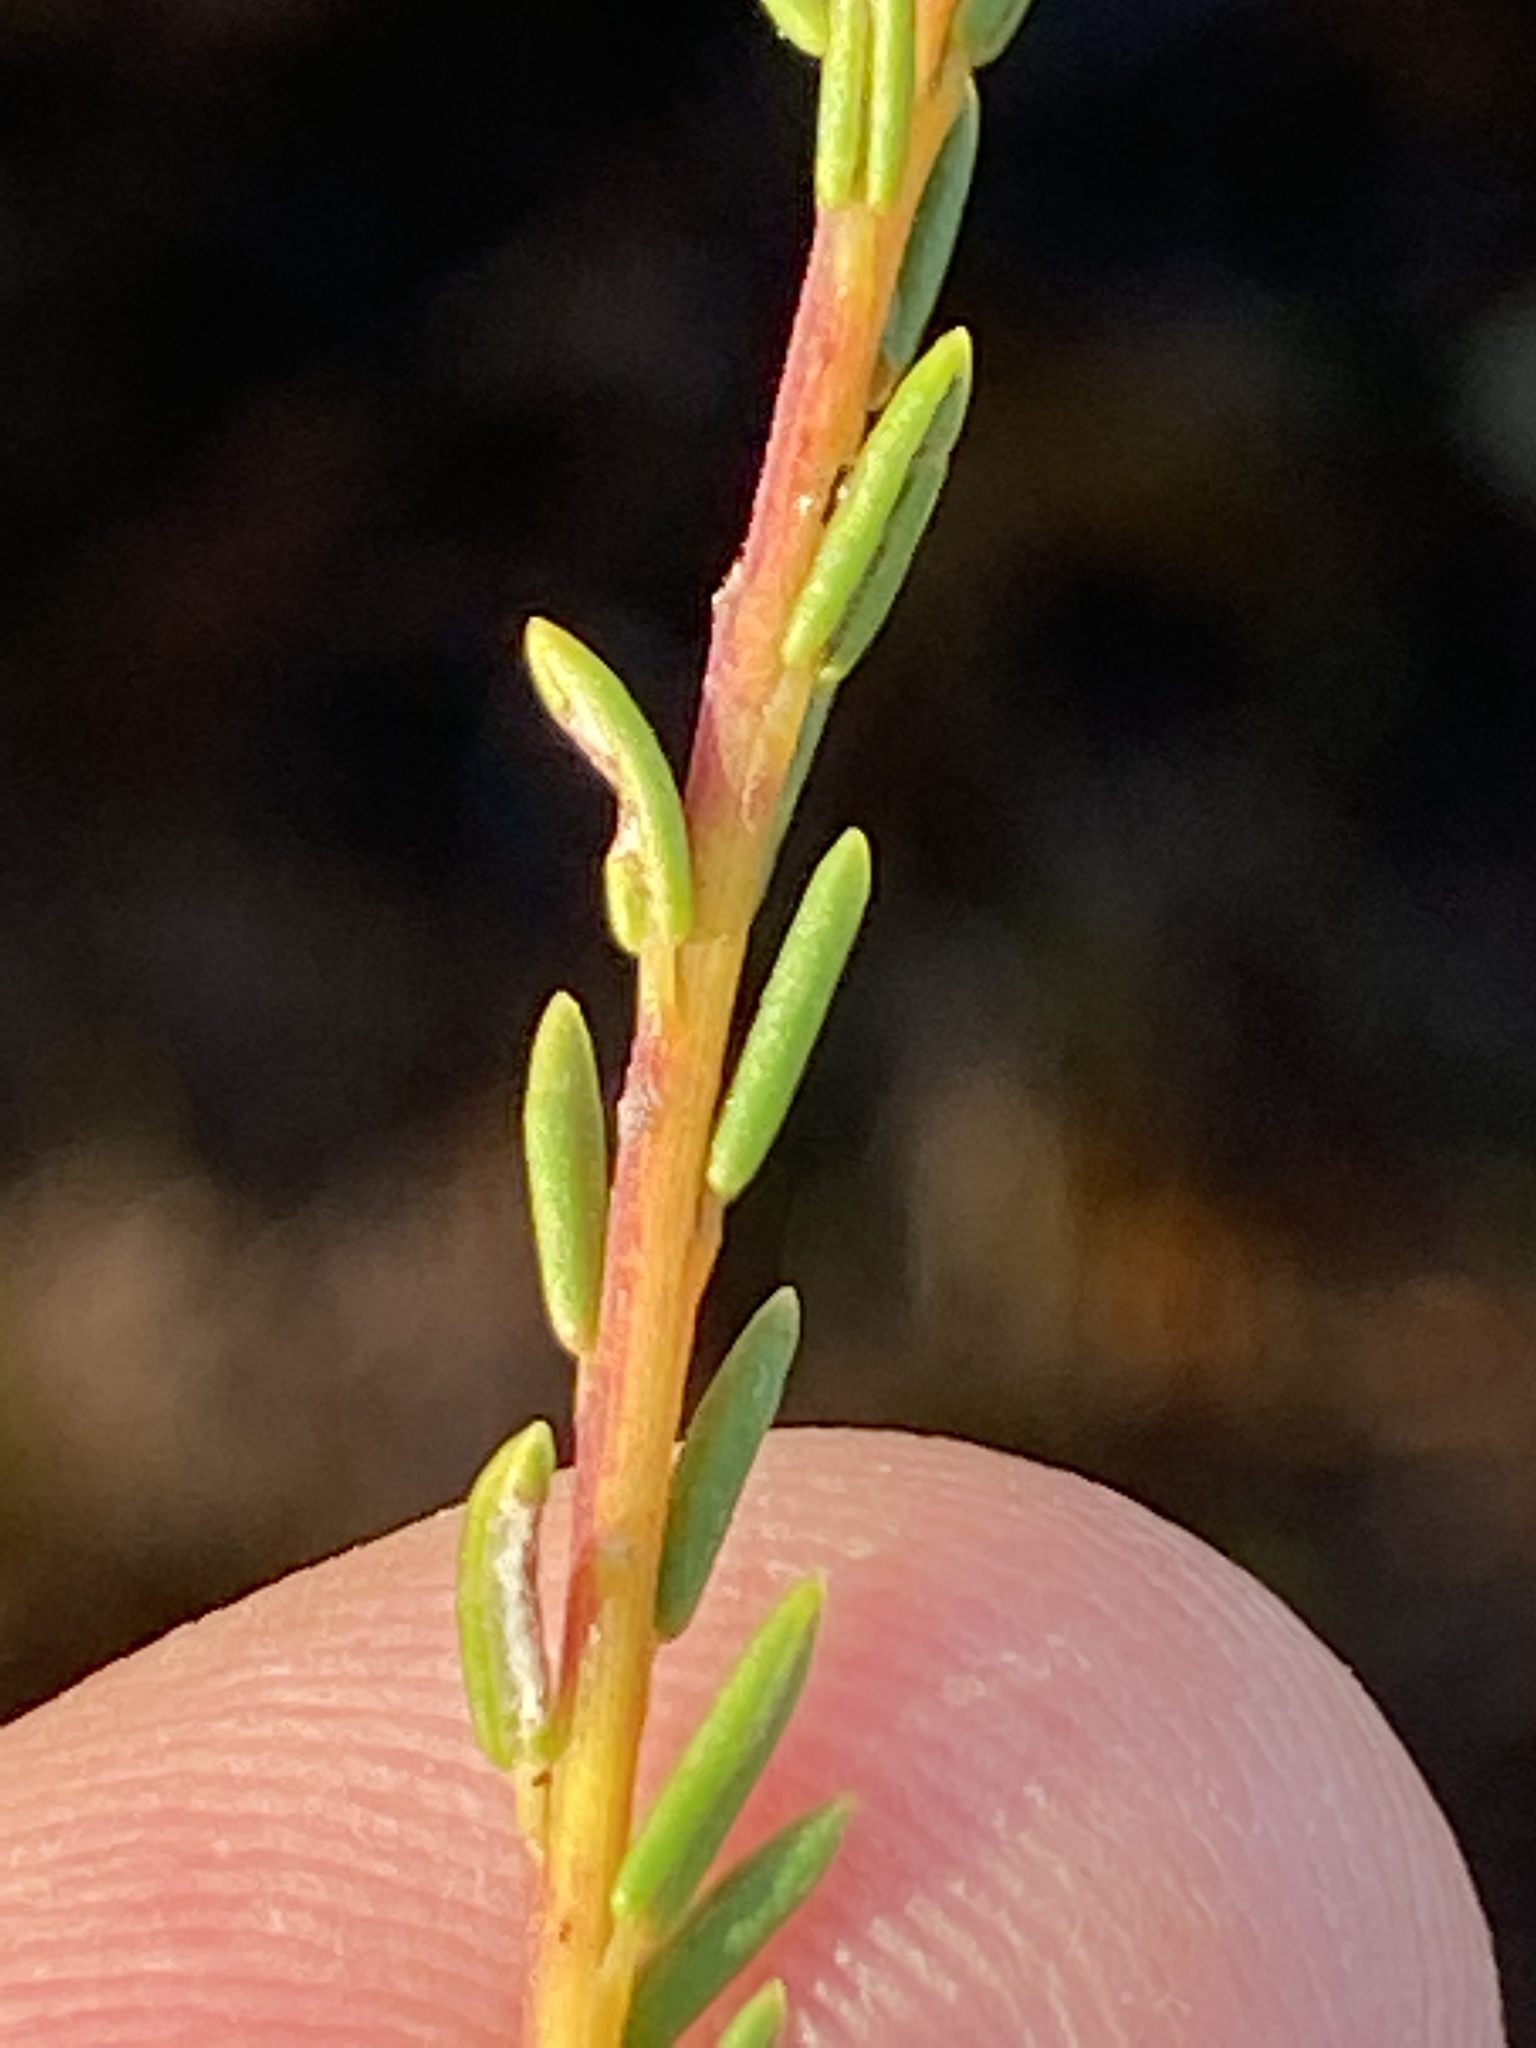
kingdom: Plantae
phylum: Tracheophyta
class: Magnoliopsida
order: Rosales
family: Rhamnaceae
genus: Phylica
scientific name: Phylica ericoides
